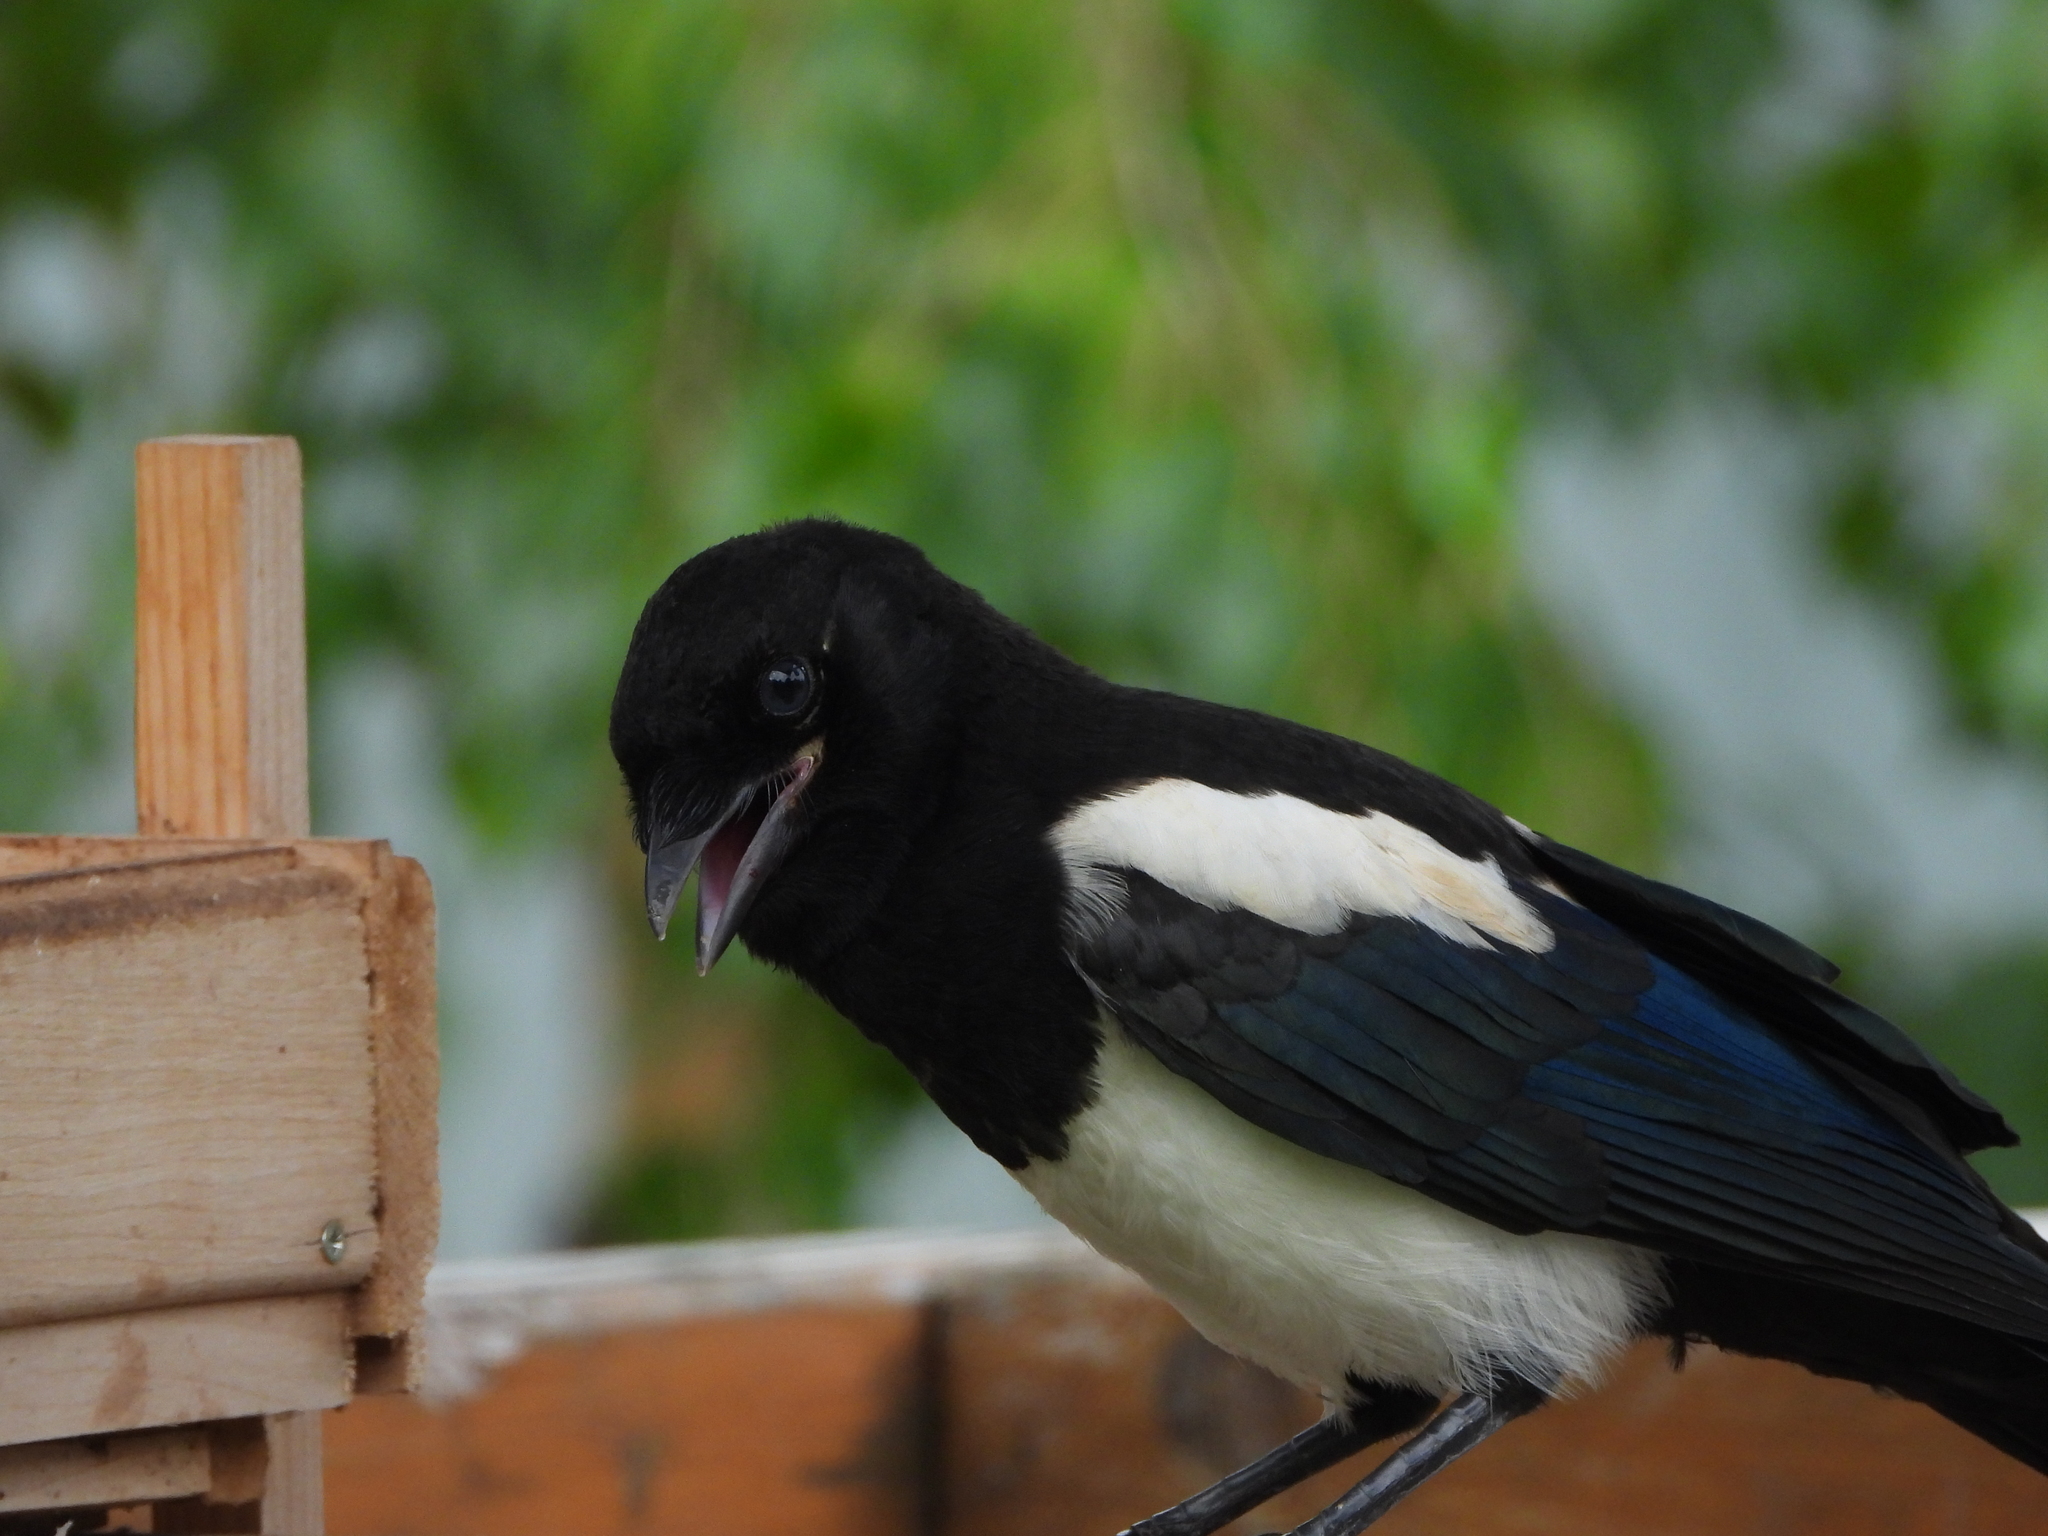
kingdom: Animalia
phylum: Chordata
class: Aves
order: Passeriformes
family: Corvidae
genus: Pica
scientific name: Pica pica
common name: Eurasian magpie
